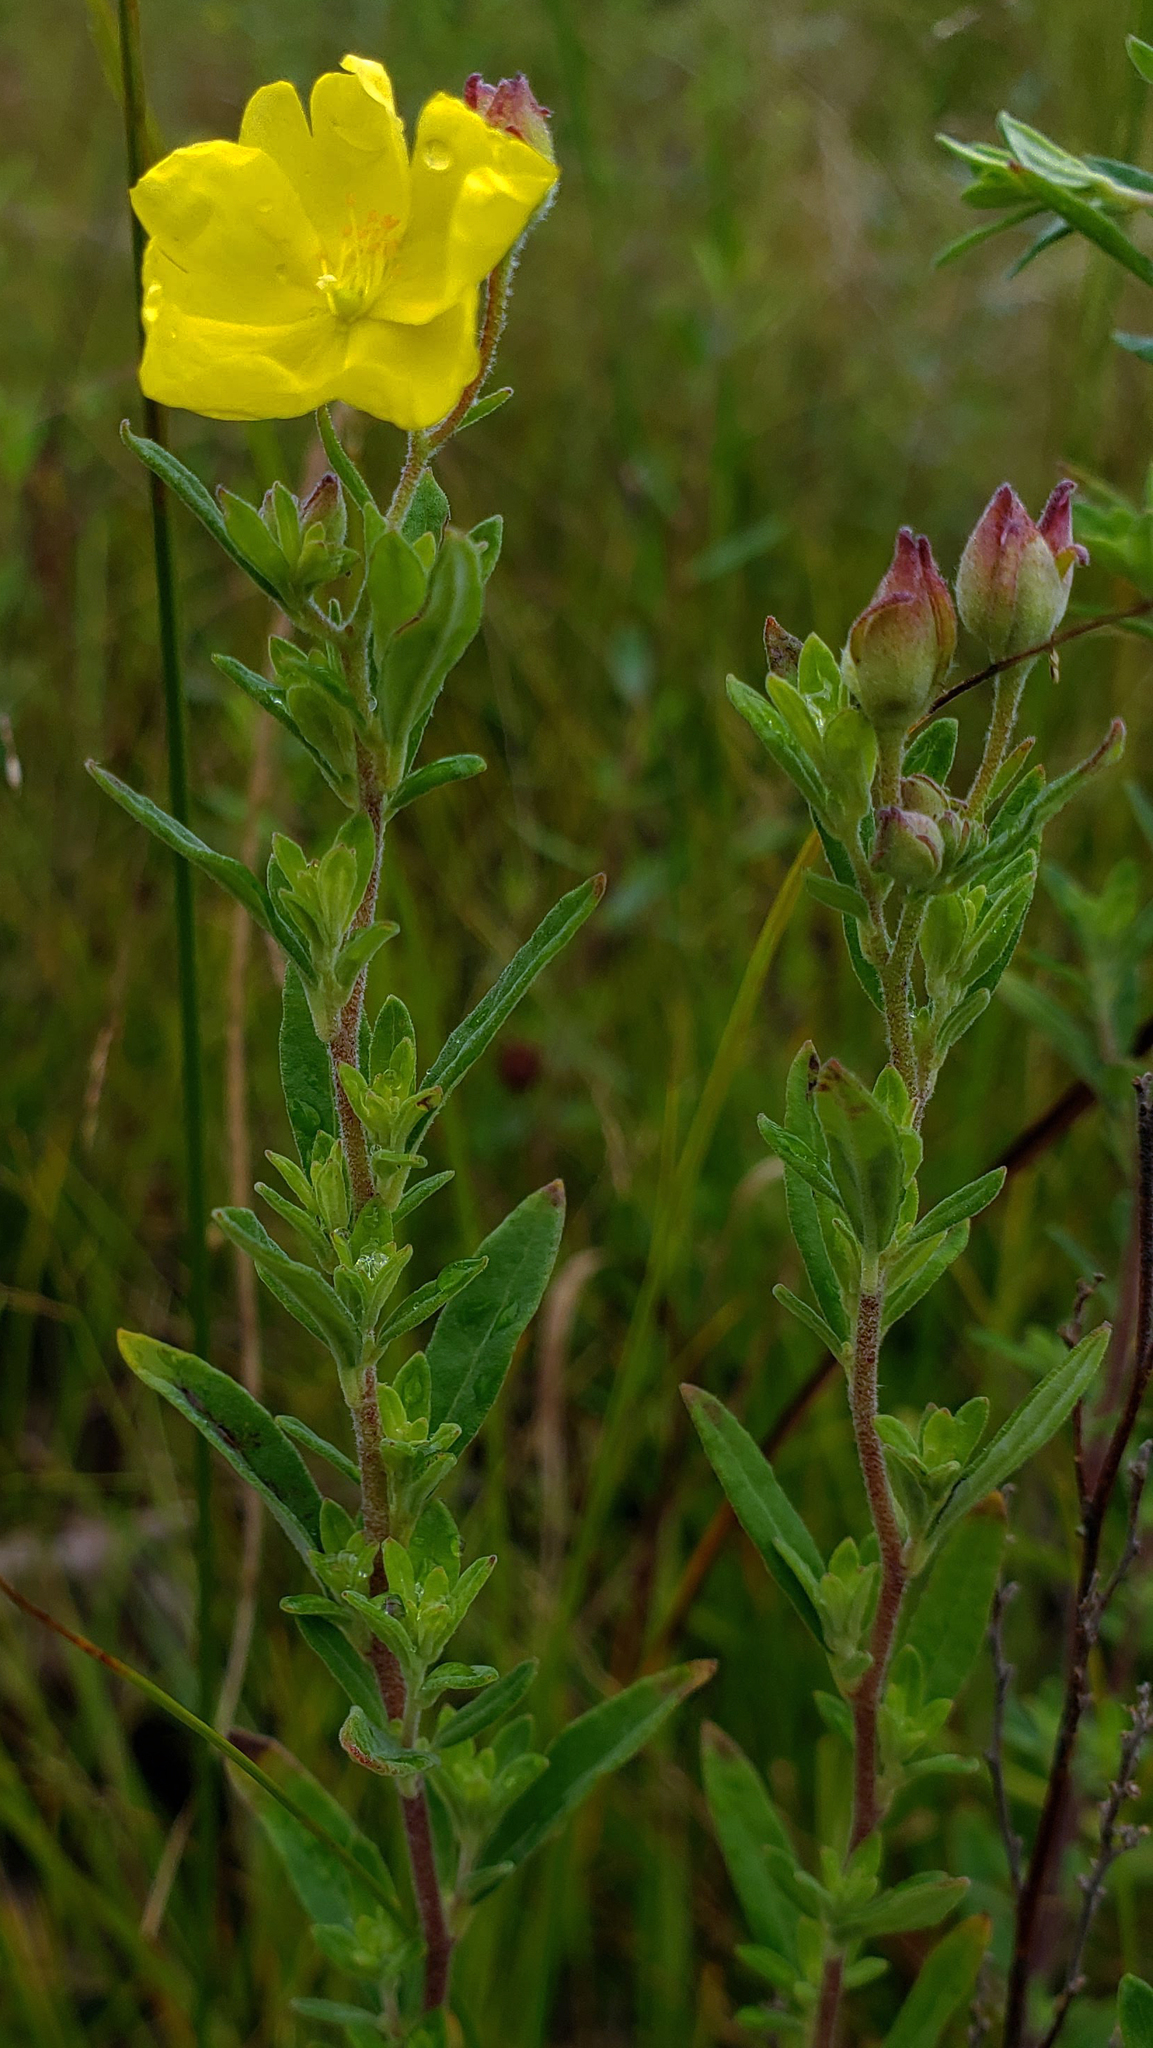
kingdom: Plantae
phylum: Tracheophyta
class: Magnoliopsida
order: Malvales
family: Cistaceae
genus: Crocanthemum
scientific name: Crocanthemum bicknellii
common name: Hoary frostweed
